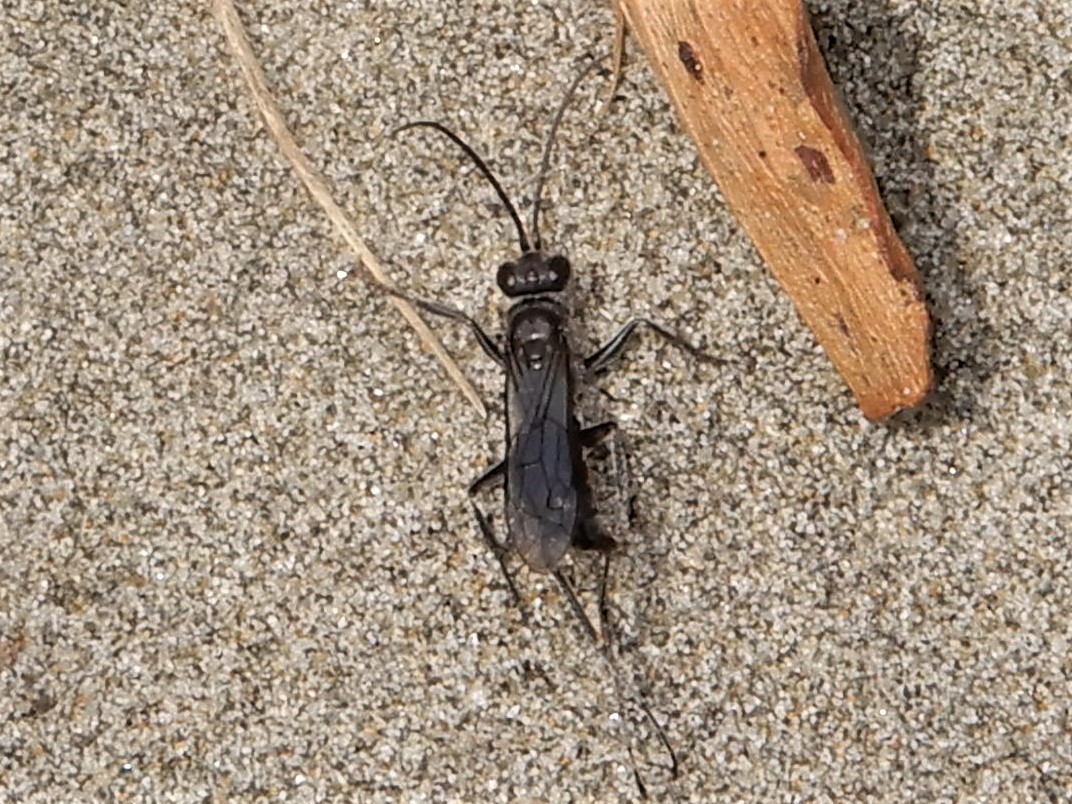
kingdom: Animalia
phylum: Arthropoda
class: Insecta
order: Hymenoptera
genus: Trichocurgus
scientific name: Trichocurgus
